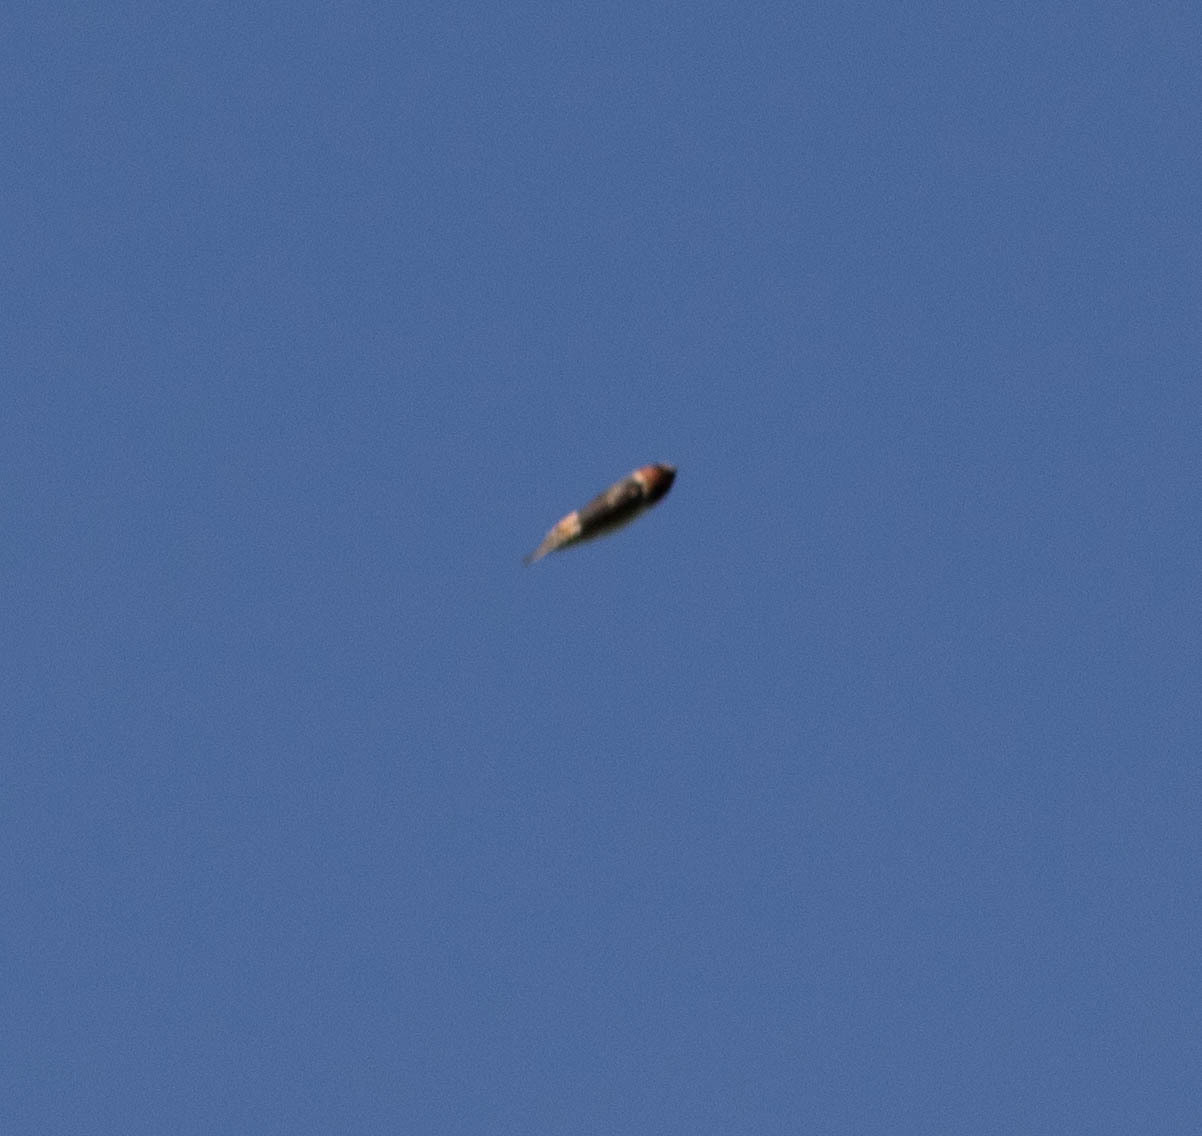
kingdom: Animalia
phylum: Chordata
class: Aves
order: Passeriformes
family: Hirundinidae
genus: Petrochelidon
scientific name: Petrochelidon pyrrhonota
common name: American cliff swallow
